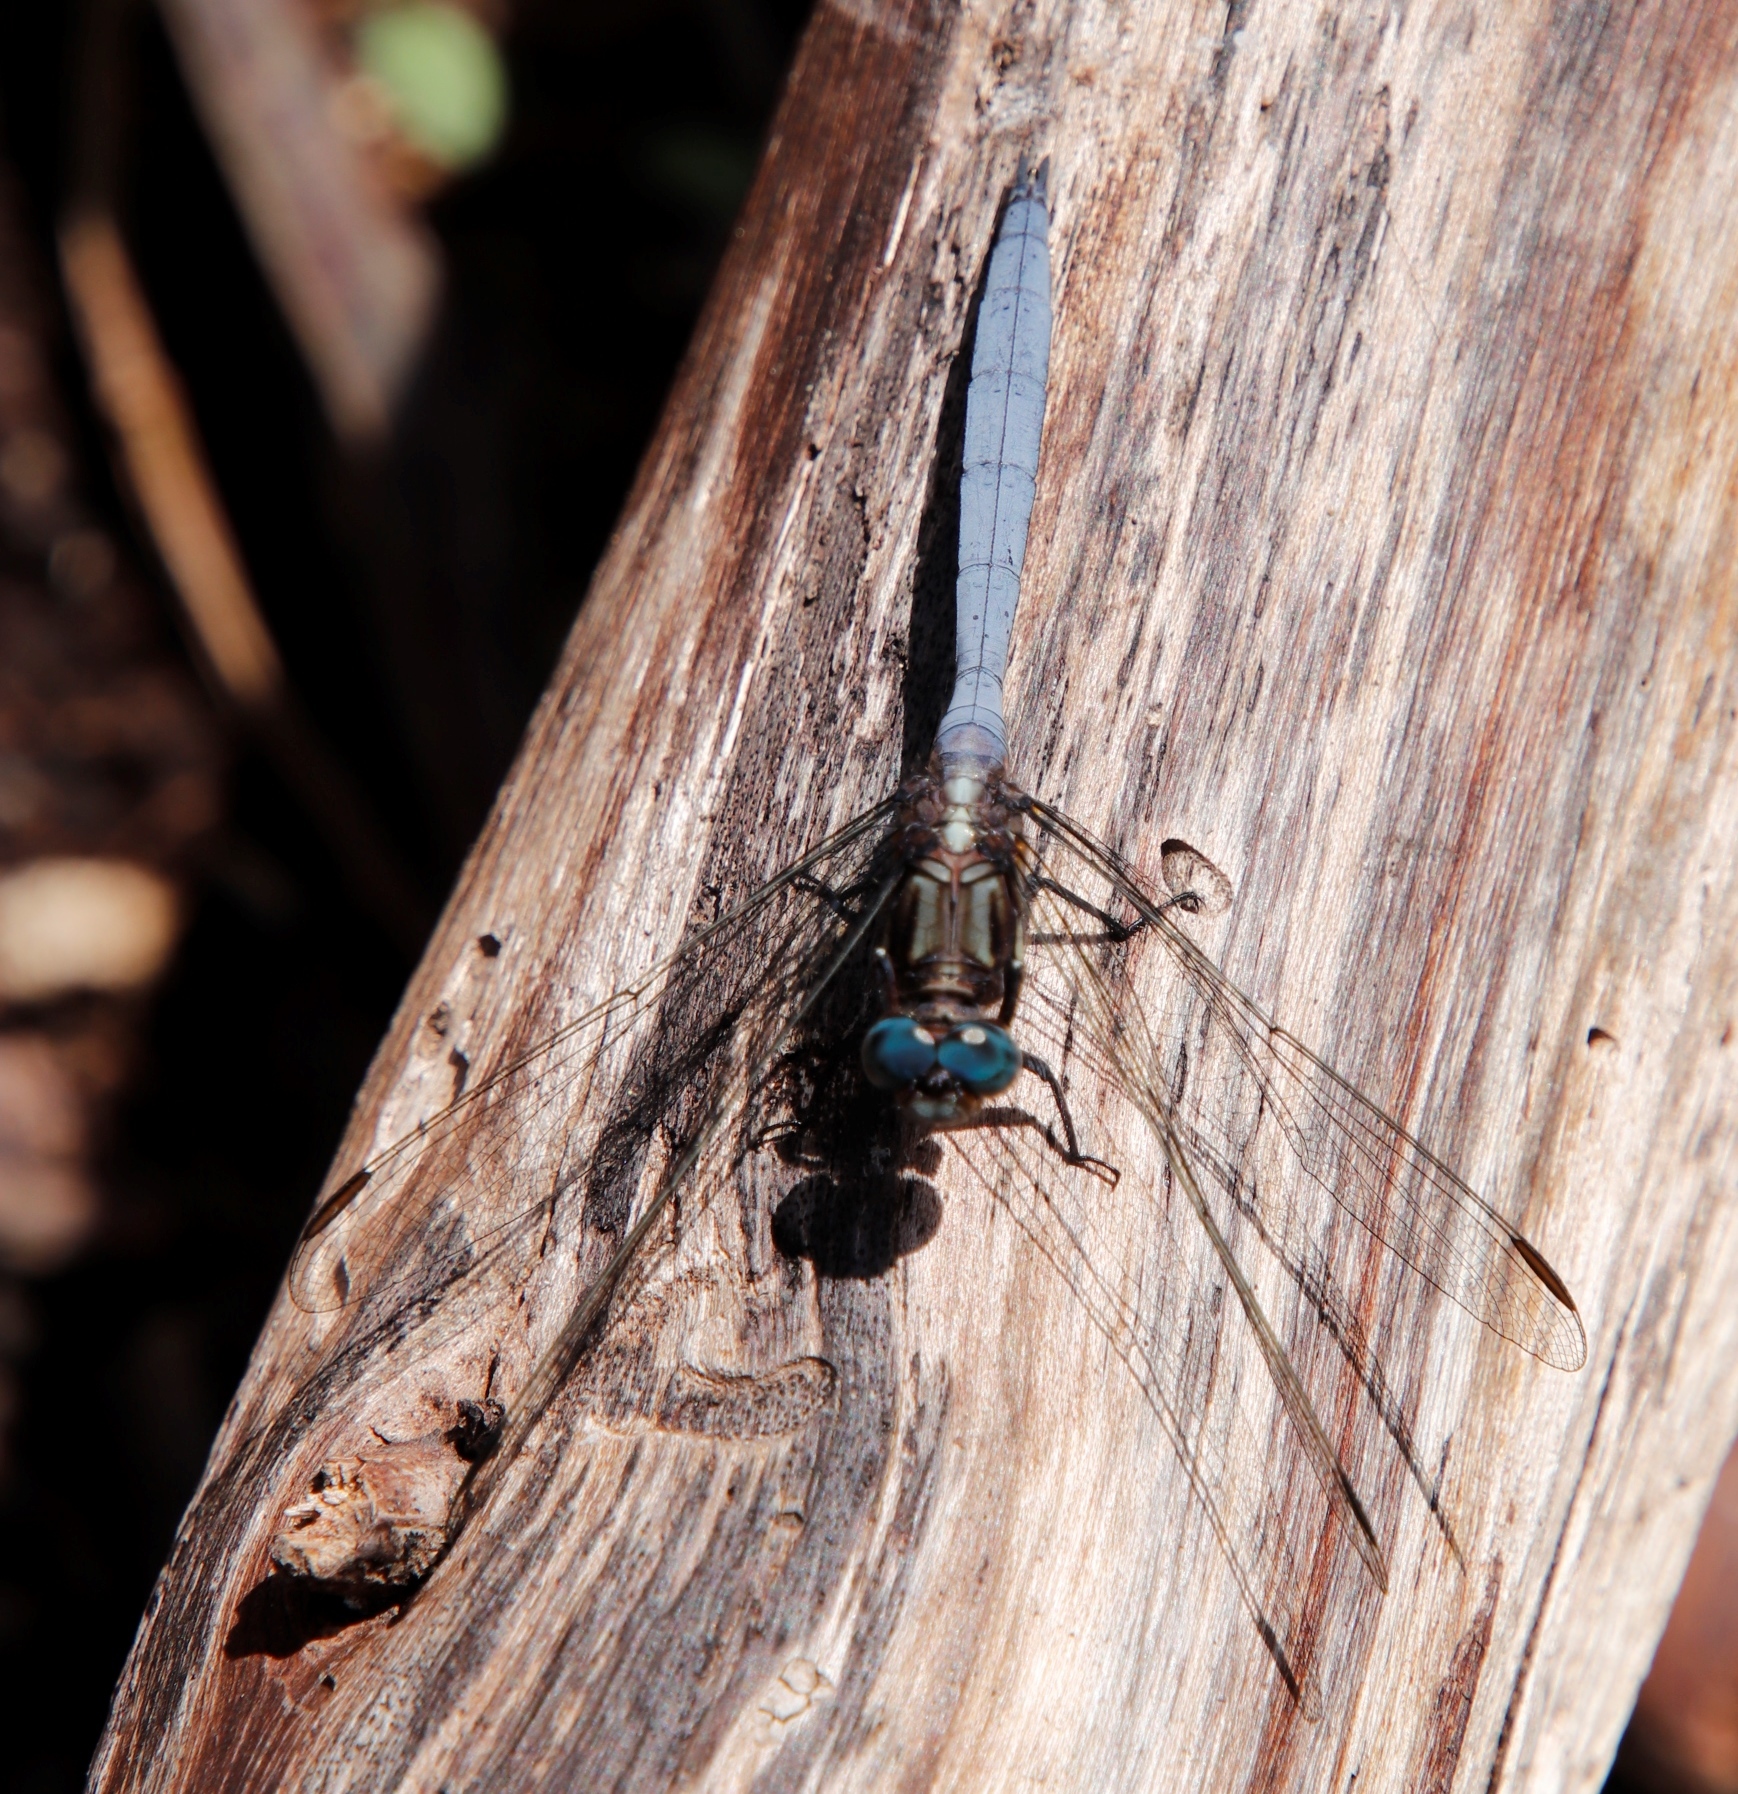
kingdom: Animalia
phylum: Arthropoda
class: Insecta
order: Odonata
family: Libellulidae
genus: Orthetrum
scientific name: Orthetrum julia
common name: Julia skimmer
